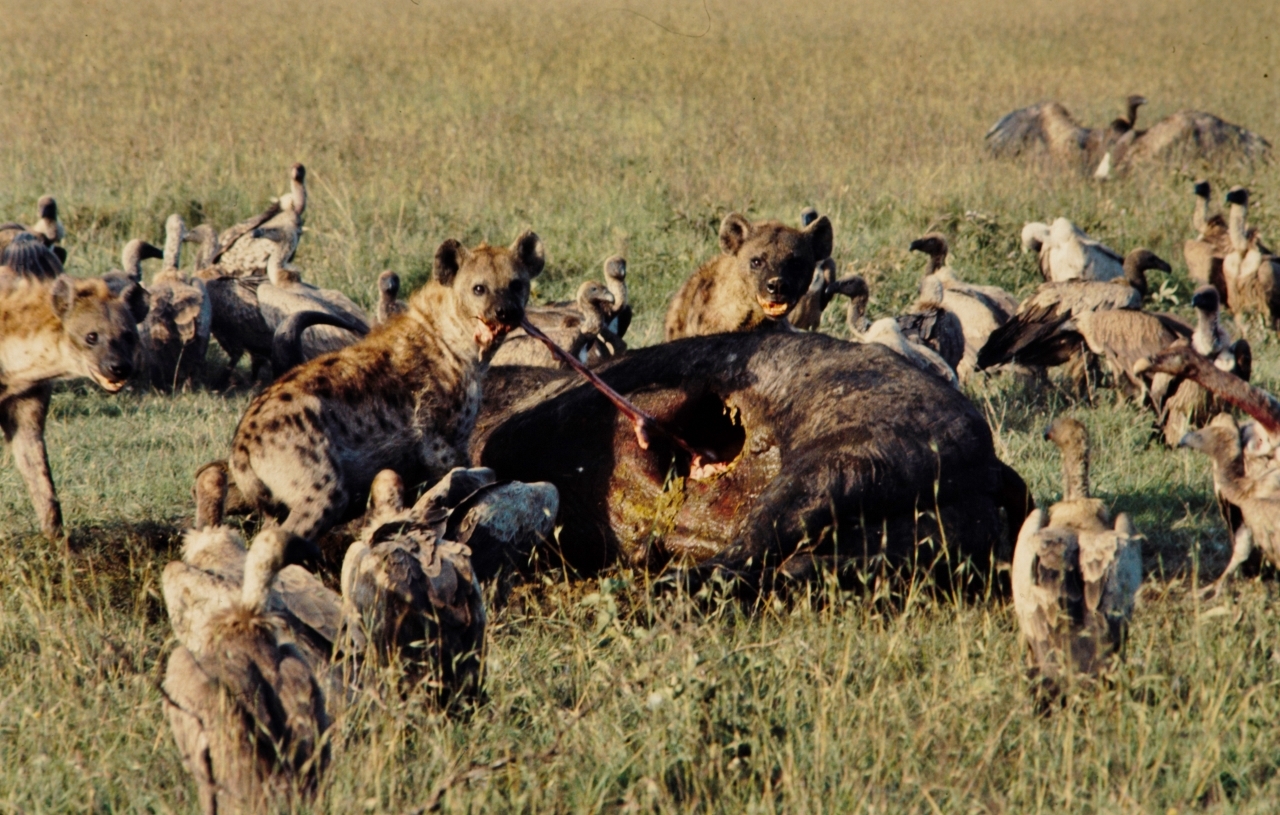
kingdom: Animalia
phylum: Chordata
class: Mammalia
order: Artiodactyla
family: Bovidae
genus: Syncerus
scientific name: Syncerus caffer
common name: African buffalo
